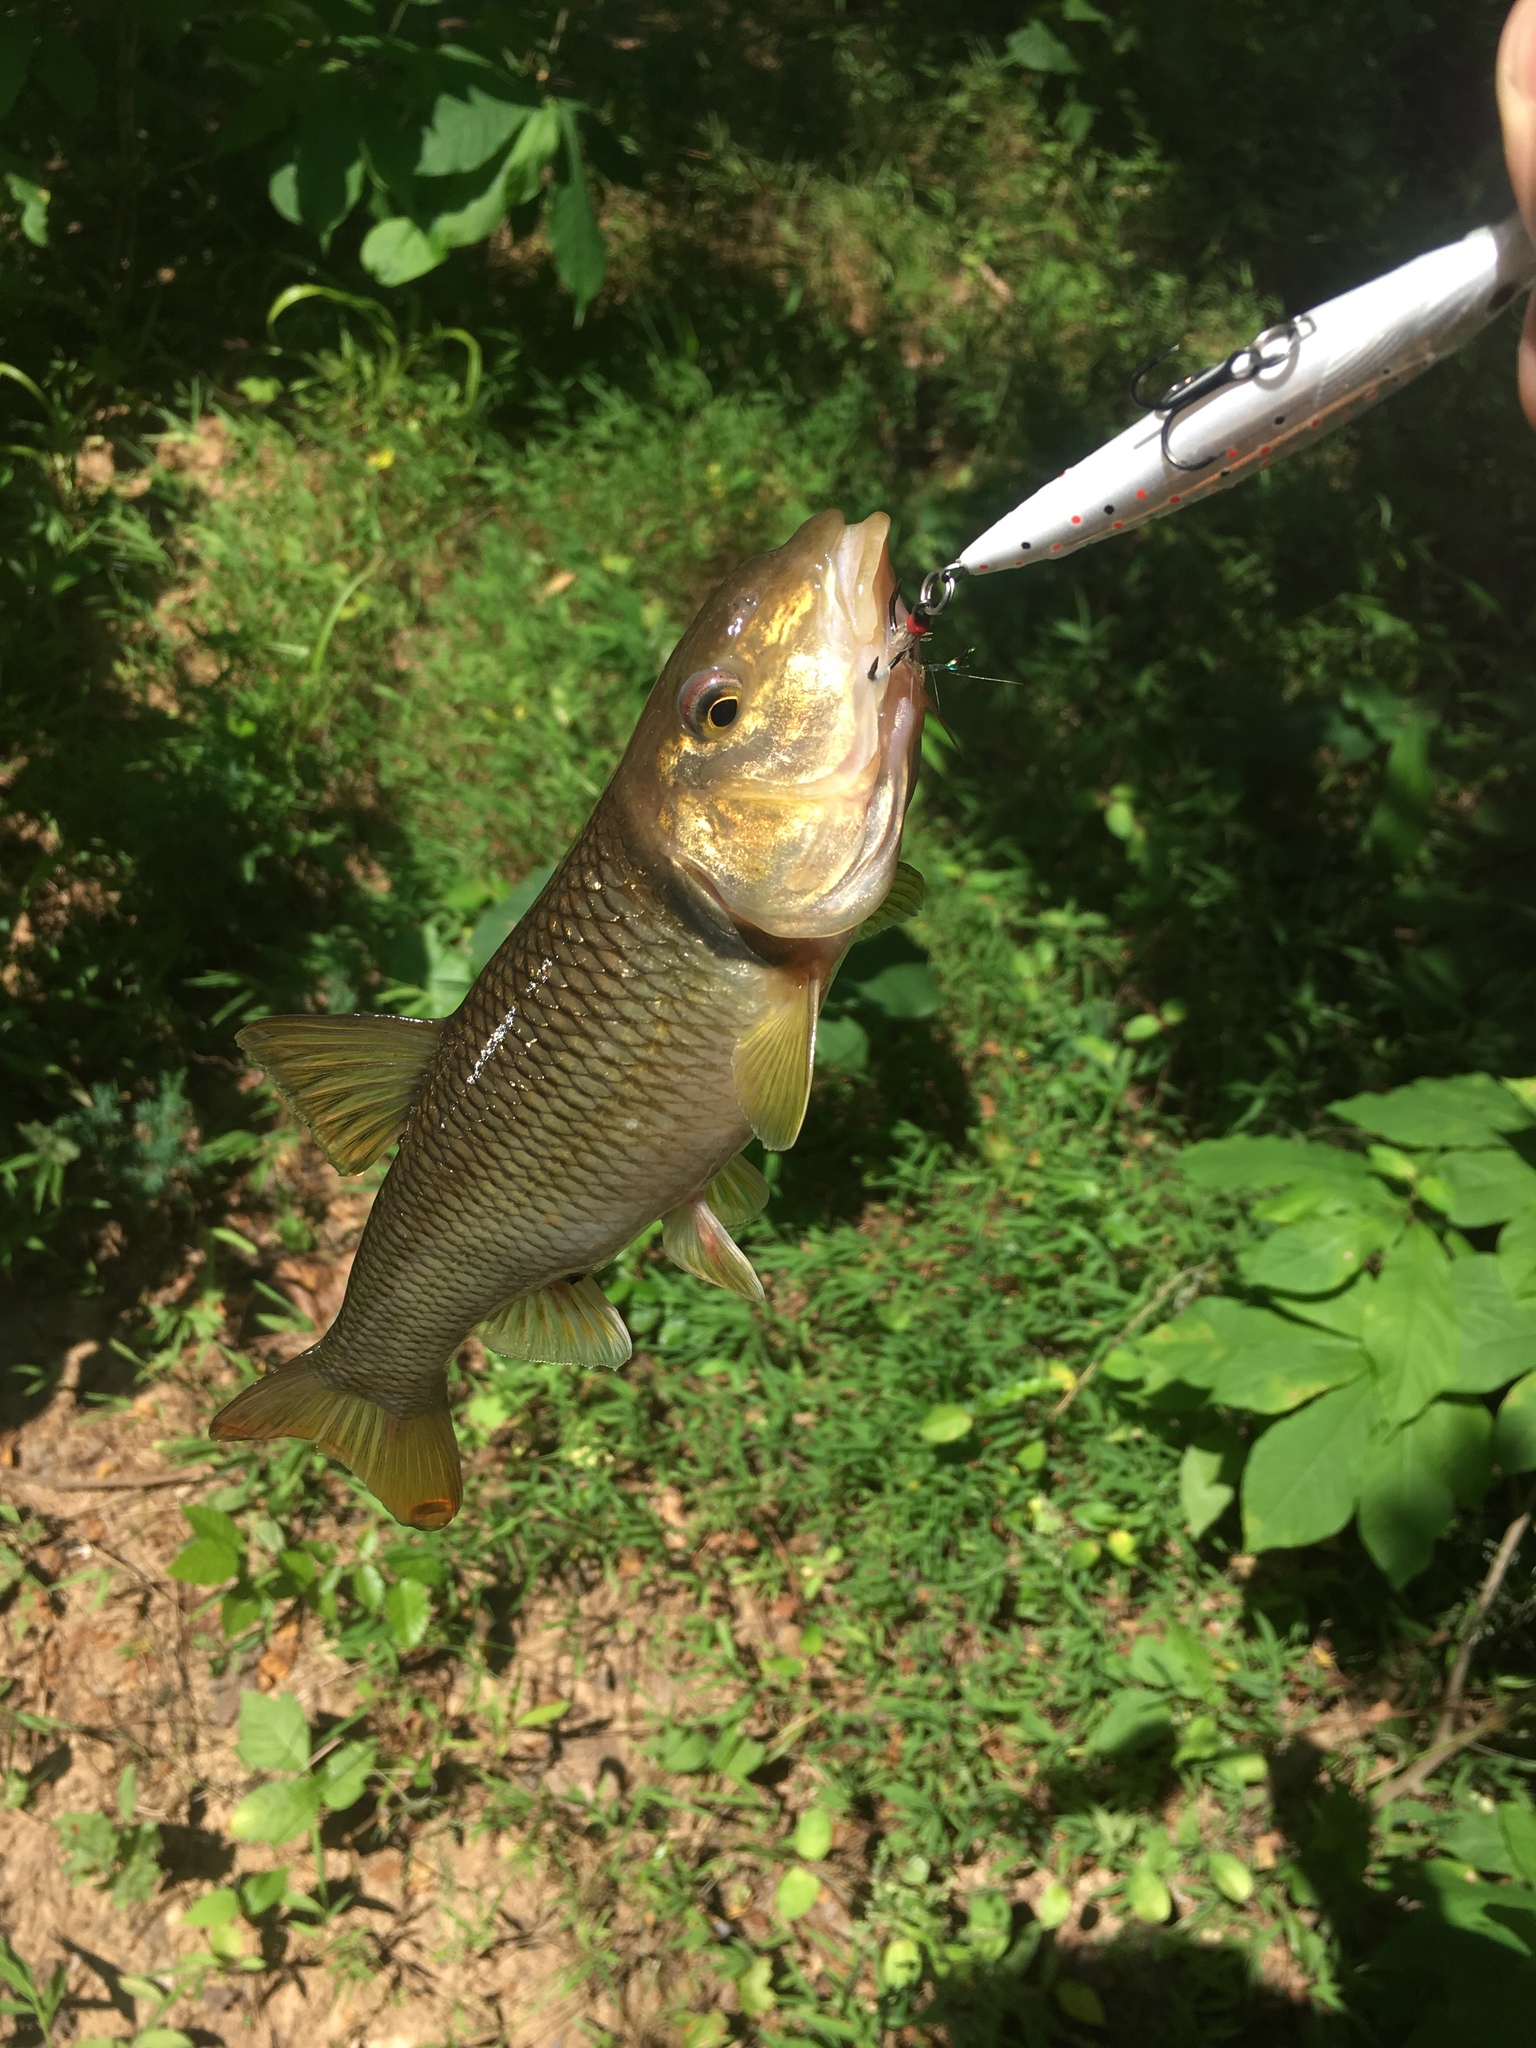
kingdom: Animalia
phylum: Chordata
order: Cypriniformes
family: Cyprinidae
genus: Nocomis
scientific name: Nocomis raneyi
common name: Bull chub
